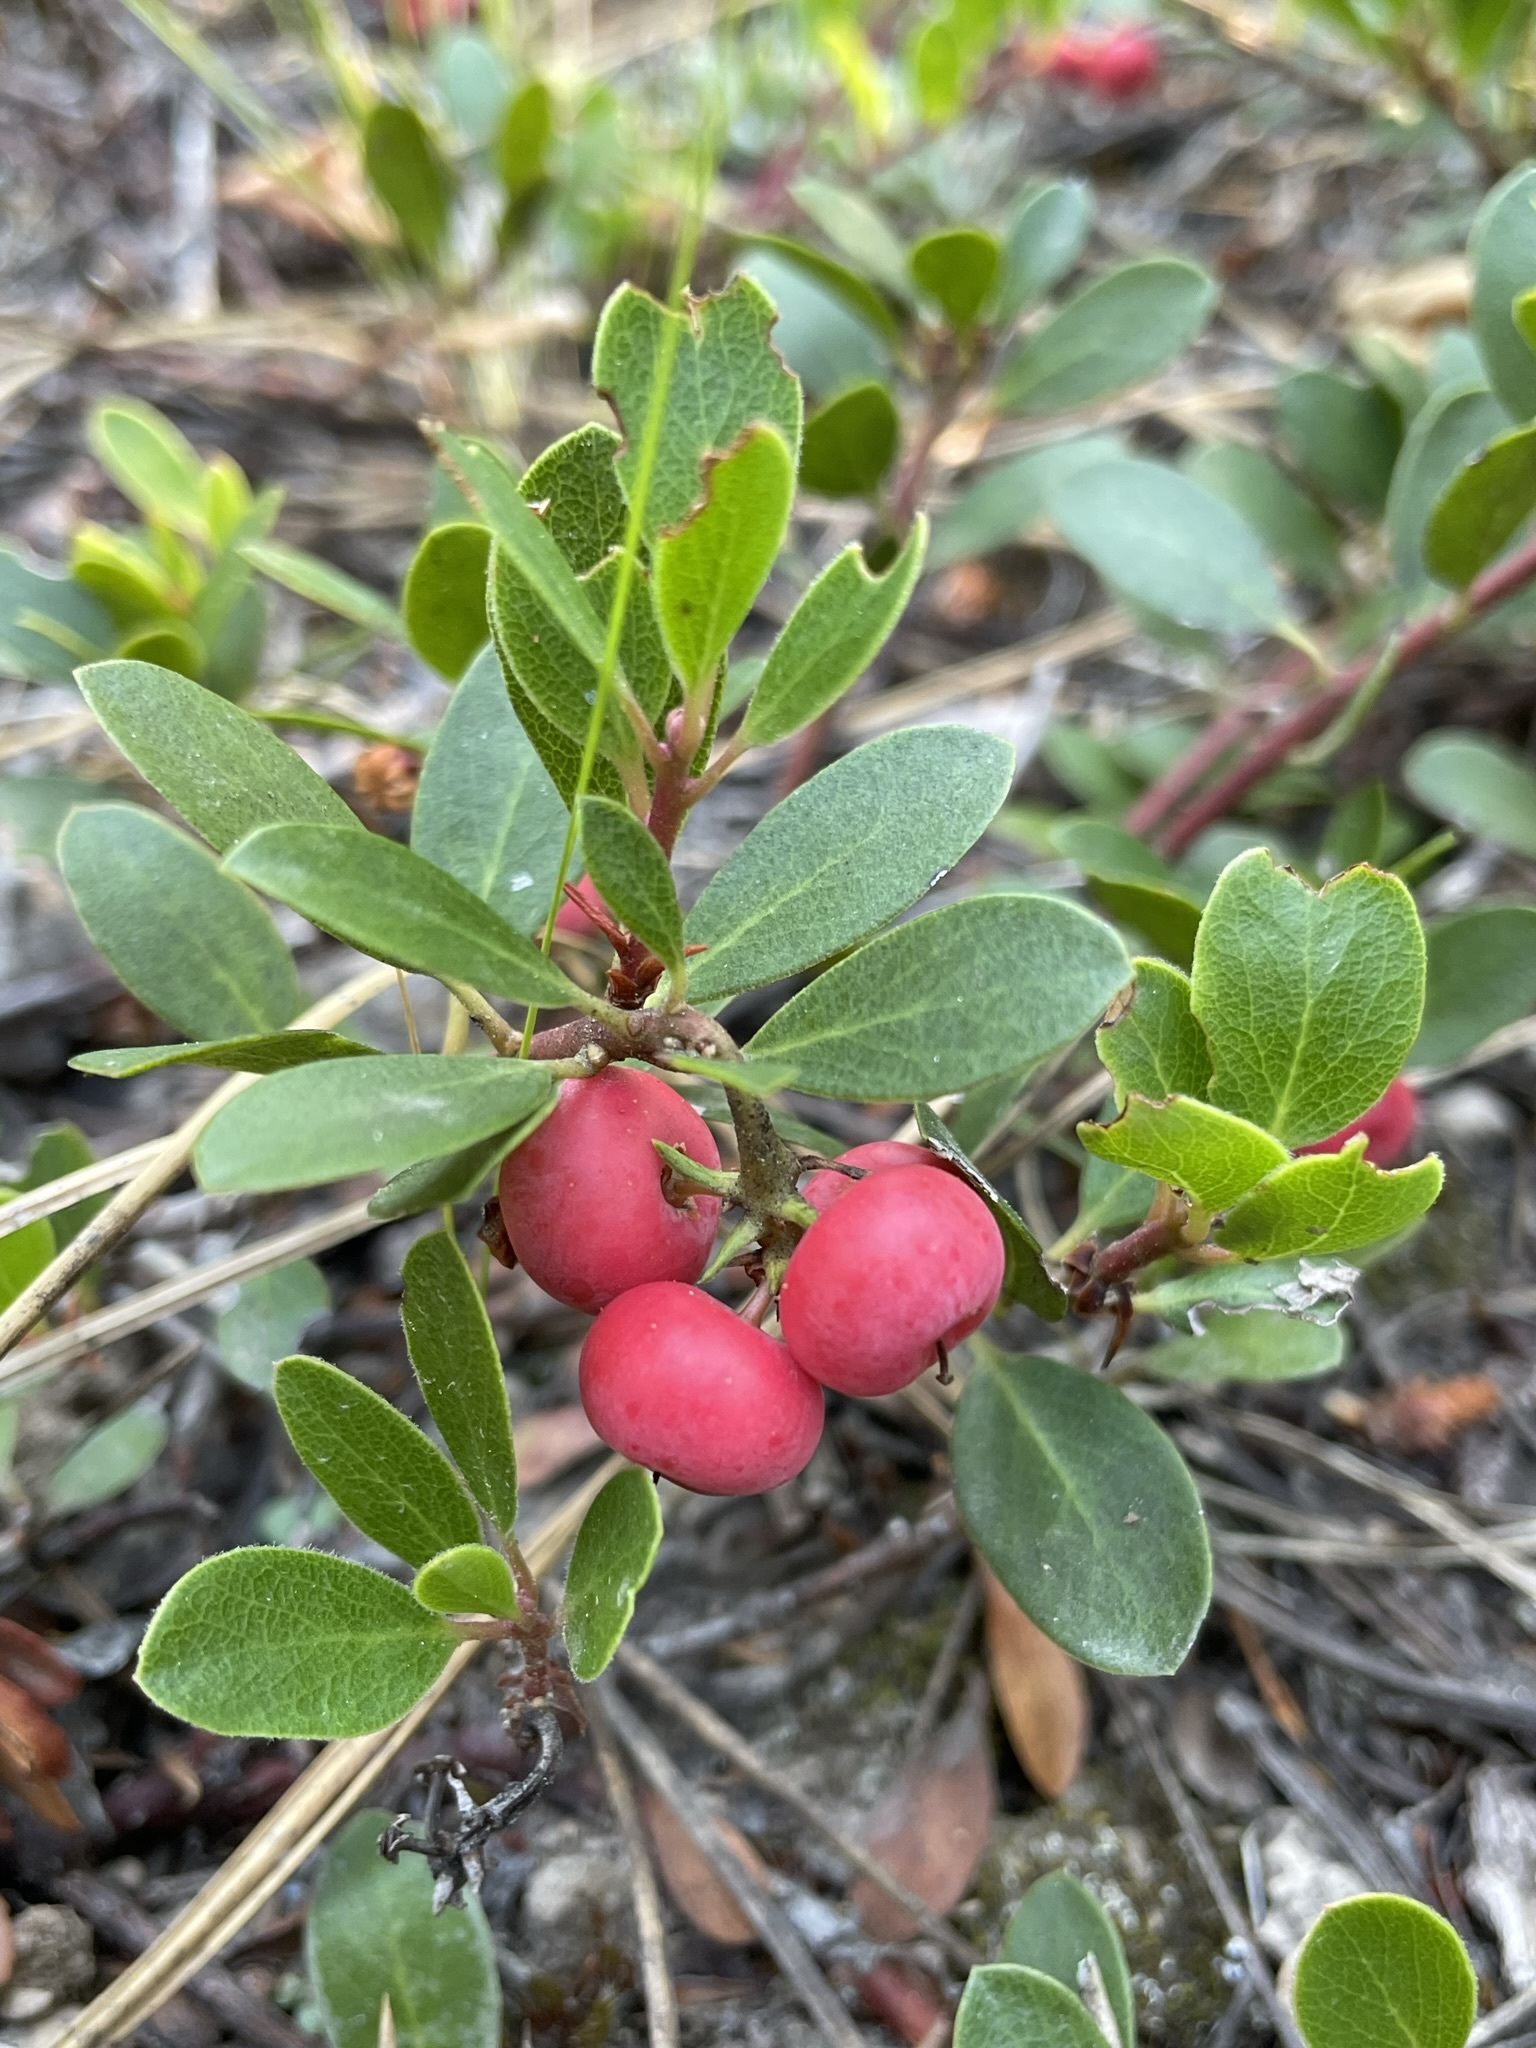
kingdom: Plantae
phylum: Tracheophyta
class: Magnoliopsida
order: Ericales
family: Ericaceae
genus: Arctostaphylos
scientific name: Arctostaphylos uva-ursi
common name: Bearberry
